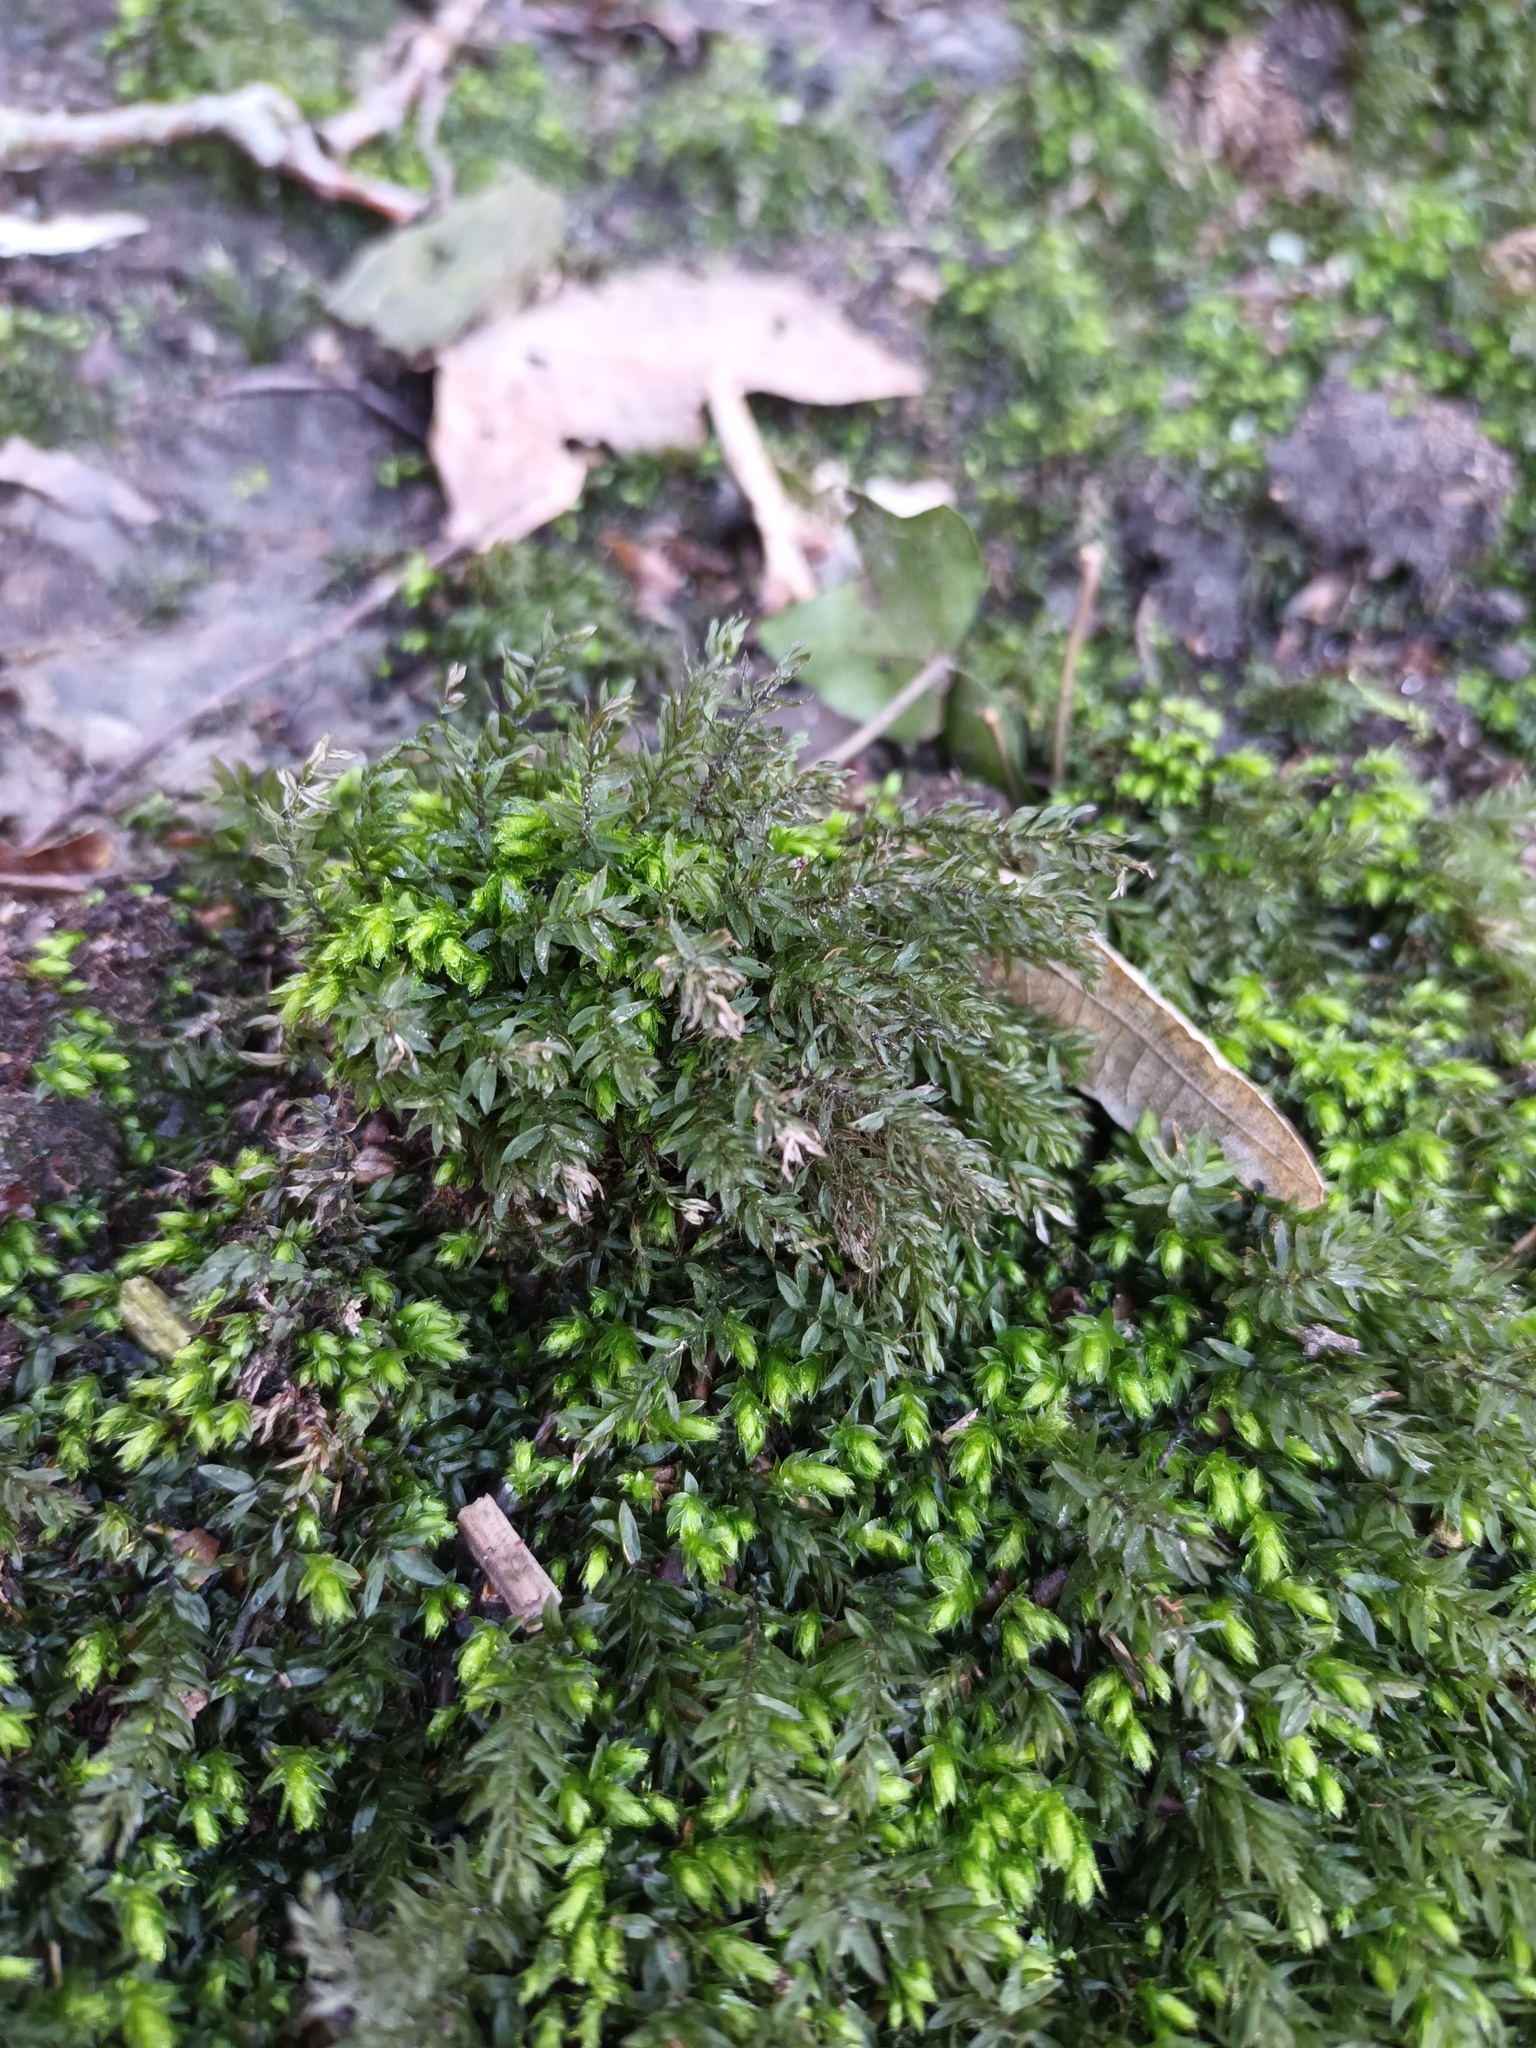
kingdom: Plantae
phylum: Bryophyta
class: Bryopsida
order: Bryales
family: Mniaceae
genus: Mnium
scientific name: Mnium hornum
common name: Swan's-neck leafy moss
